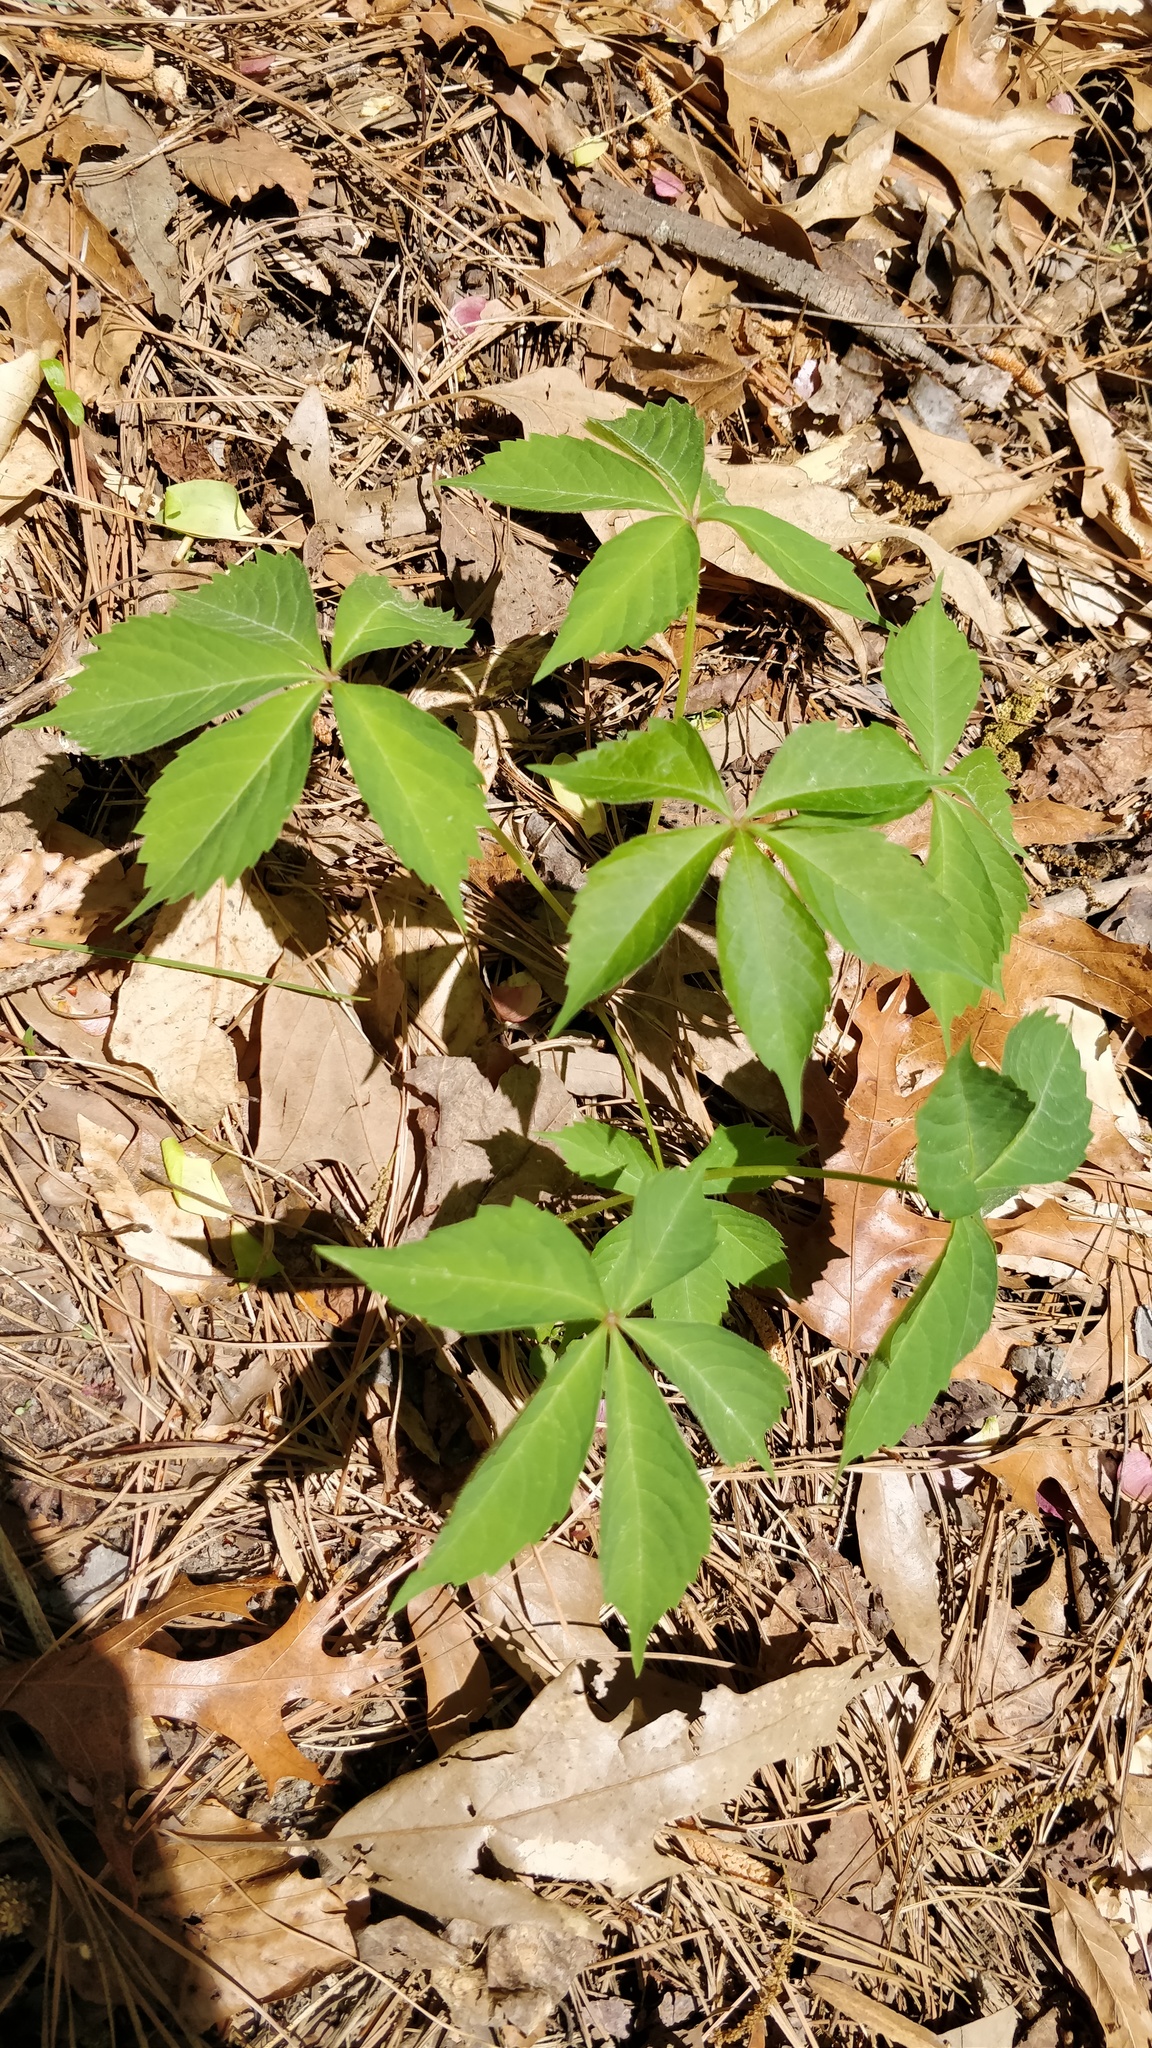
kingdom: Plantae
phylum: Tracheophyta
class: Magnoliopsida
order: Vitales
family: Vitaceae
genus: Parthenocissus
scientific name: Parthenocissus quinquefolia
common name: Virginia-creeper
